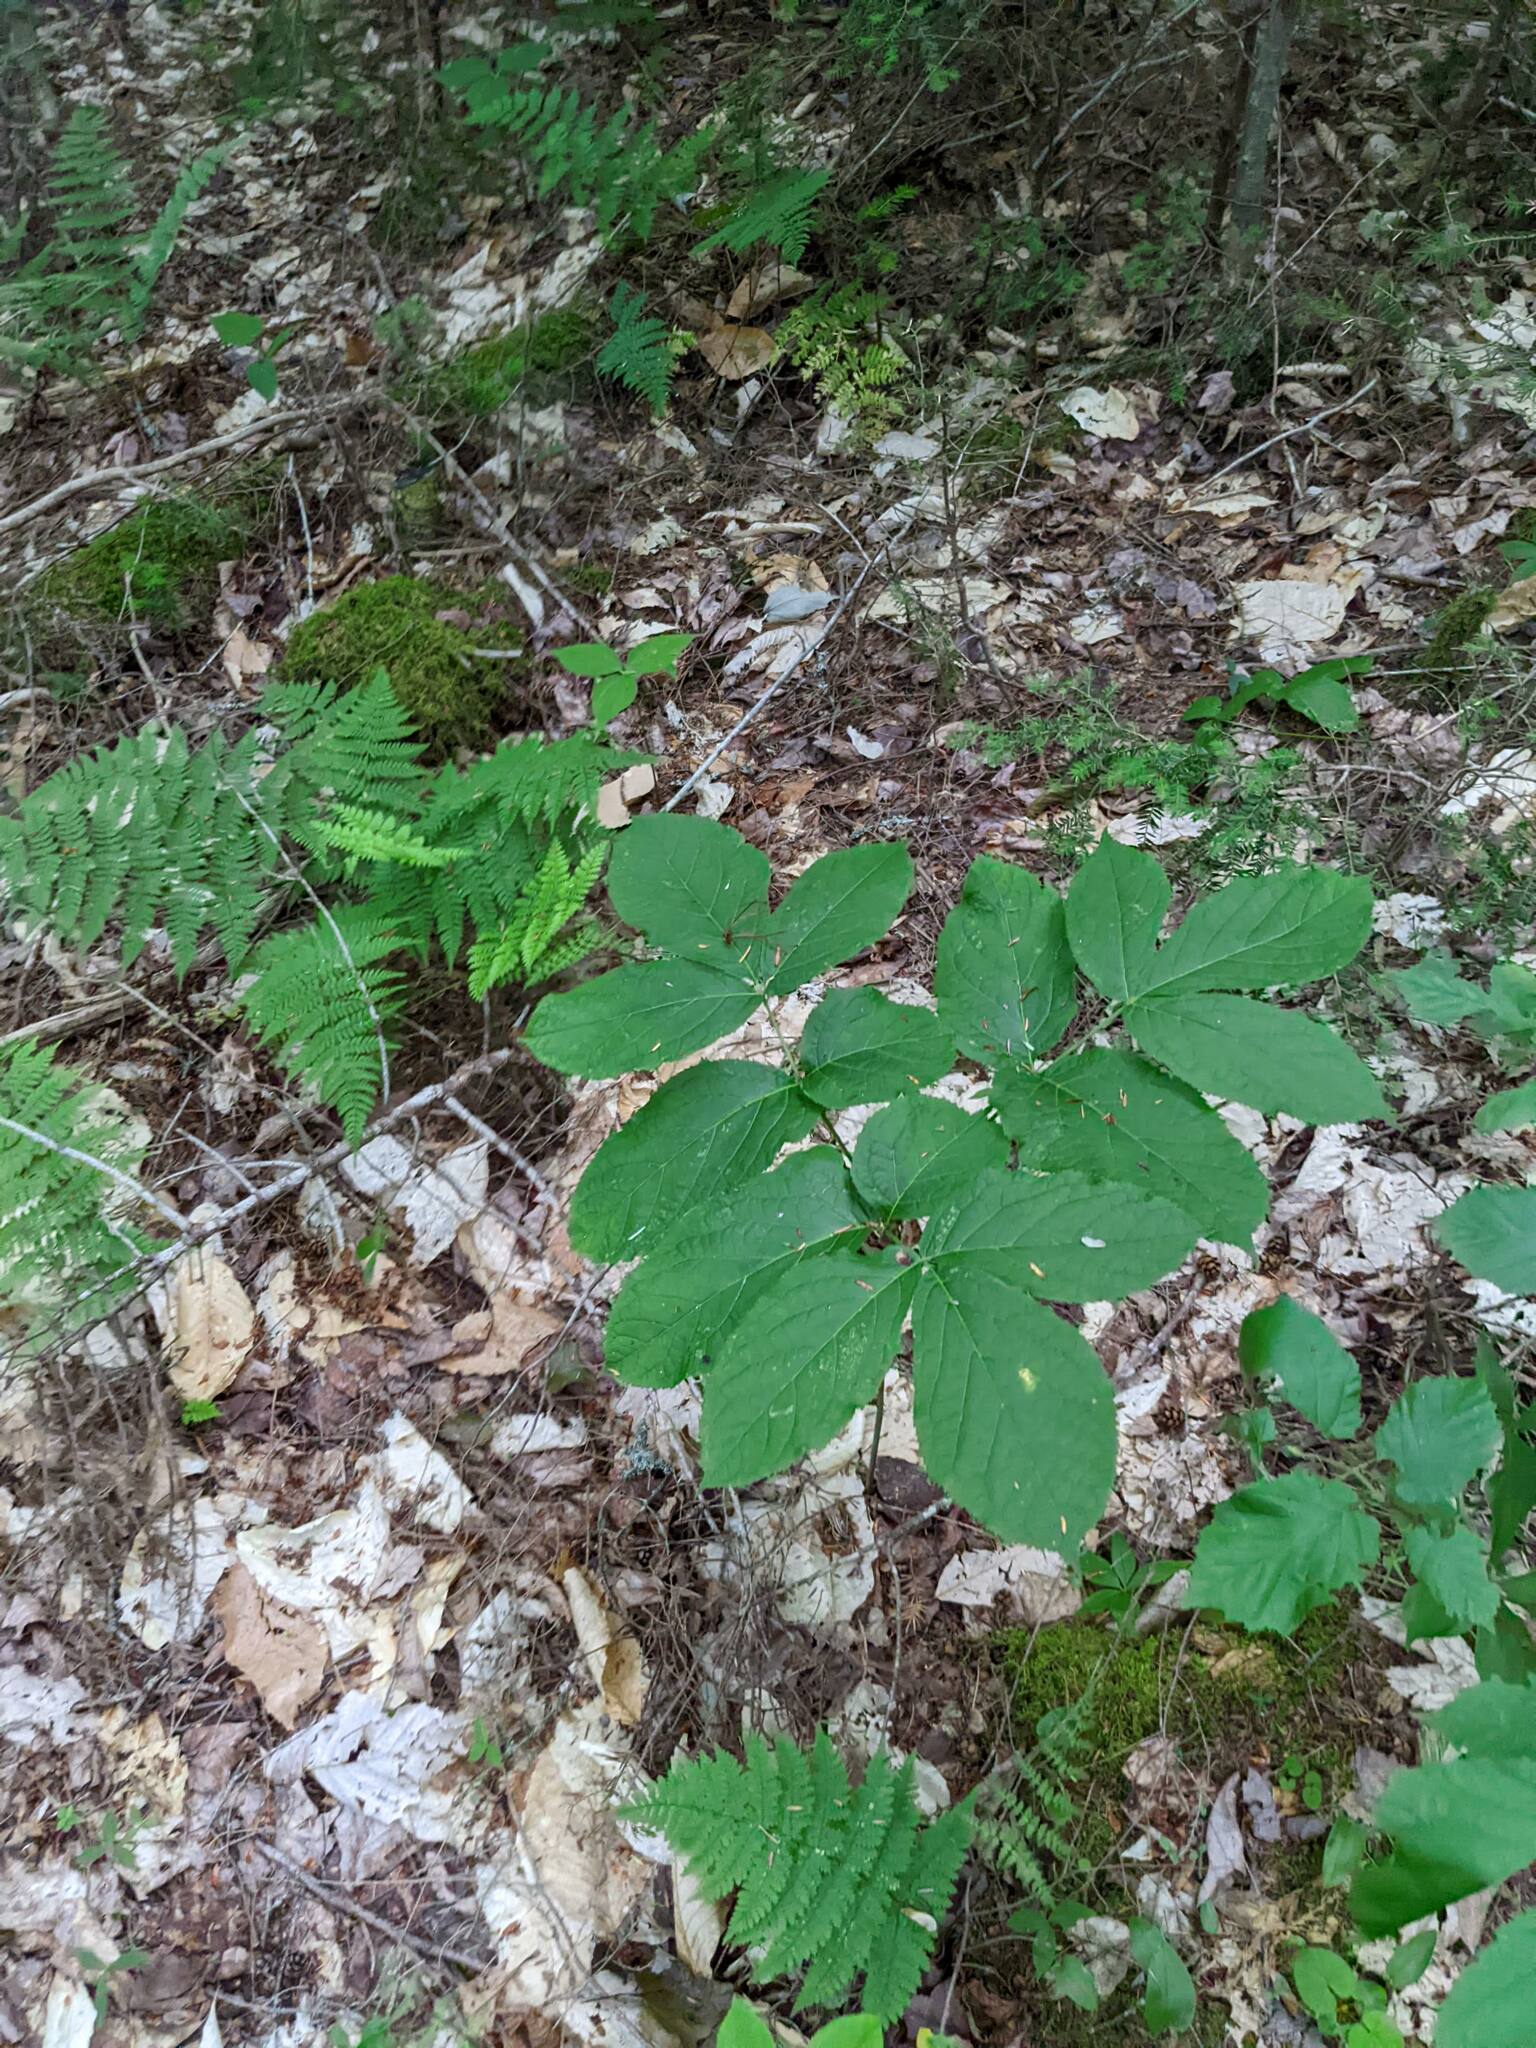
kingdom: Plantae
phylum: Tracheophyta
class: Magnoliopsida
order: Apiales
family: Araliaceae
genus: Aralia
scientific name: Aralia nudicaulis
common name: Wild sarsaparilla
